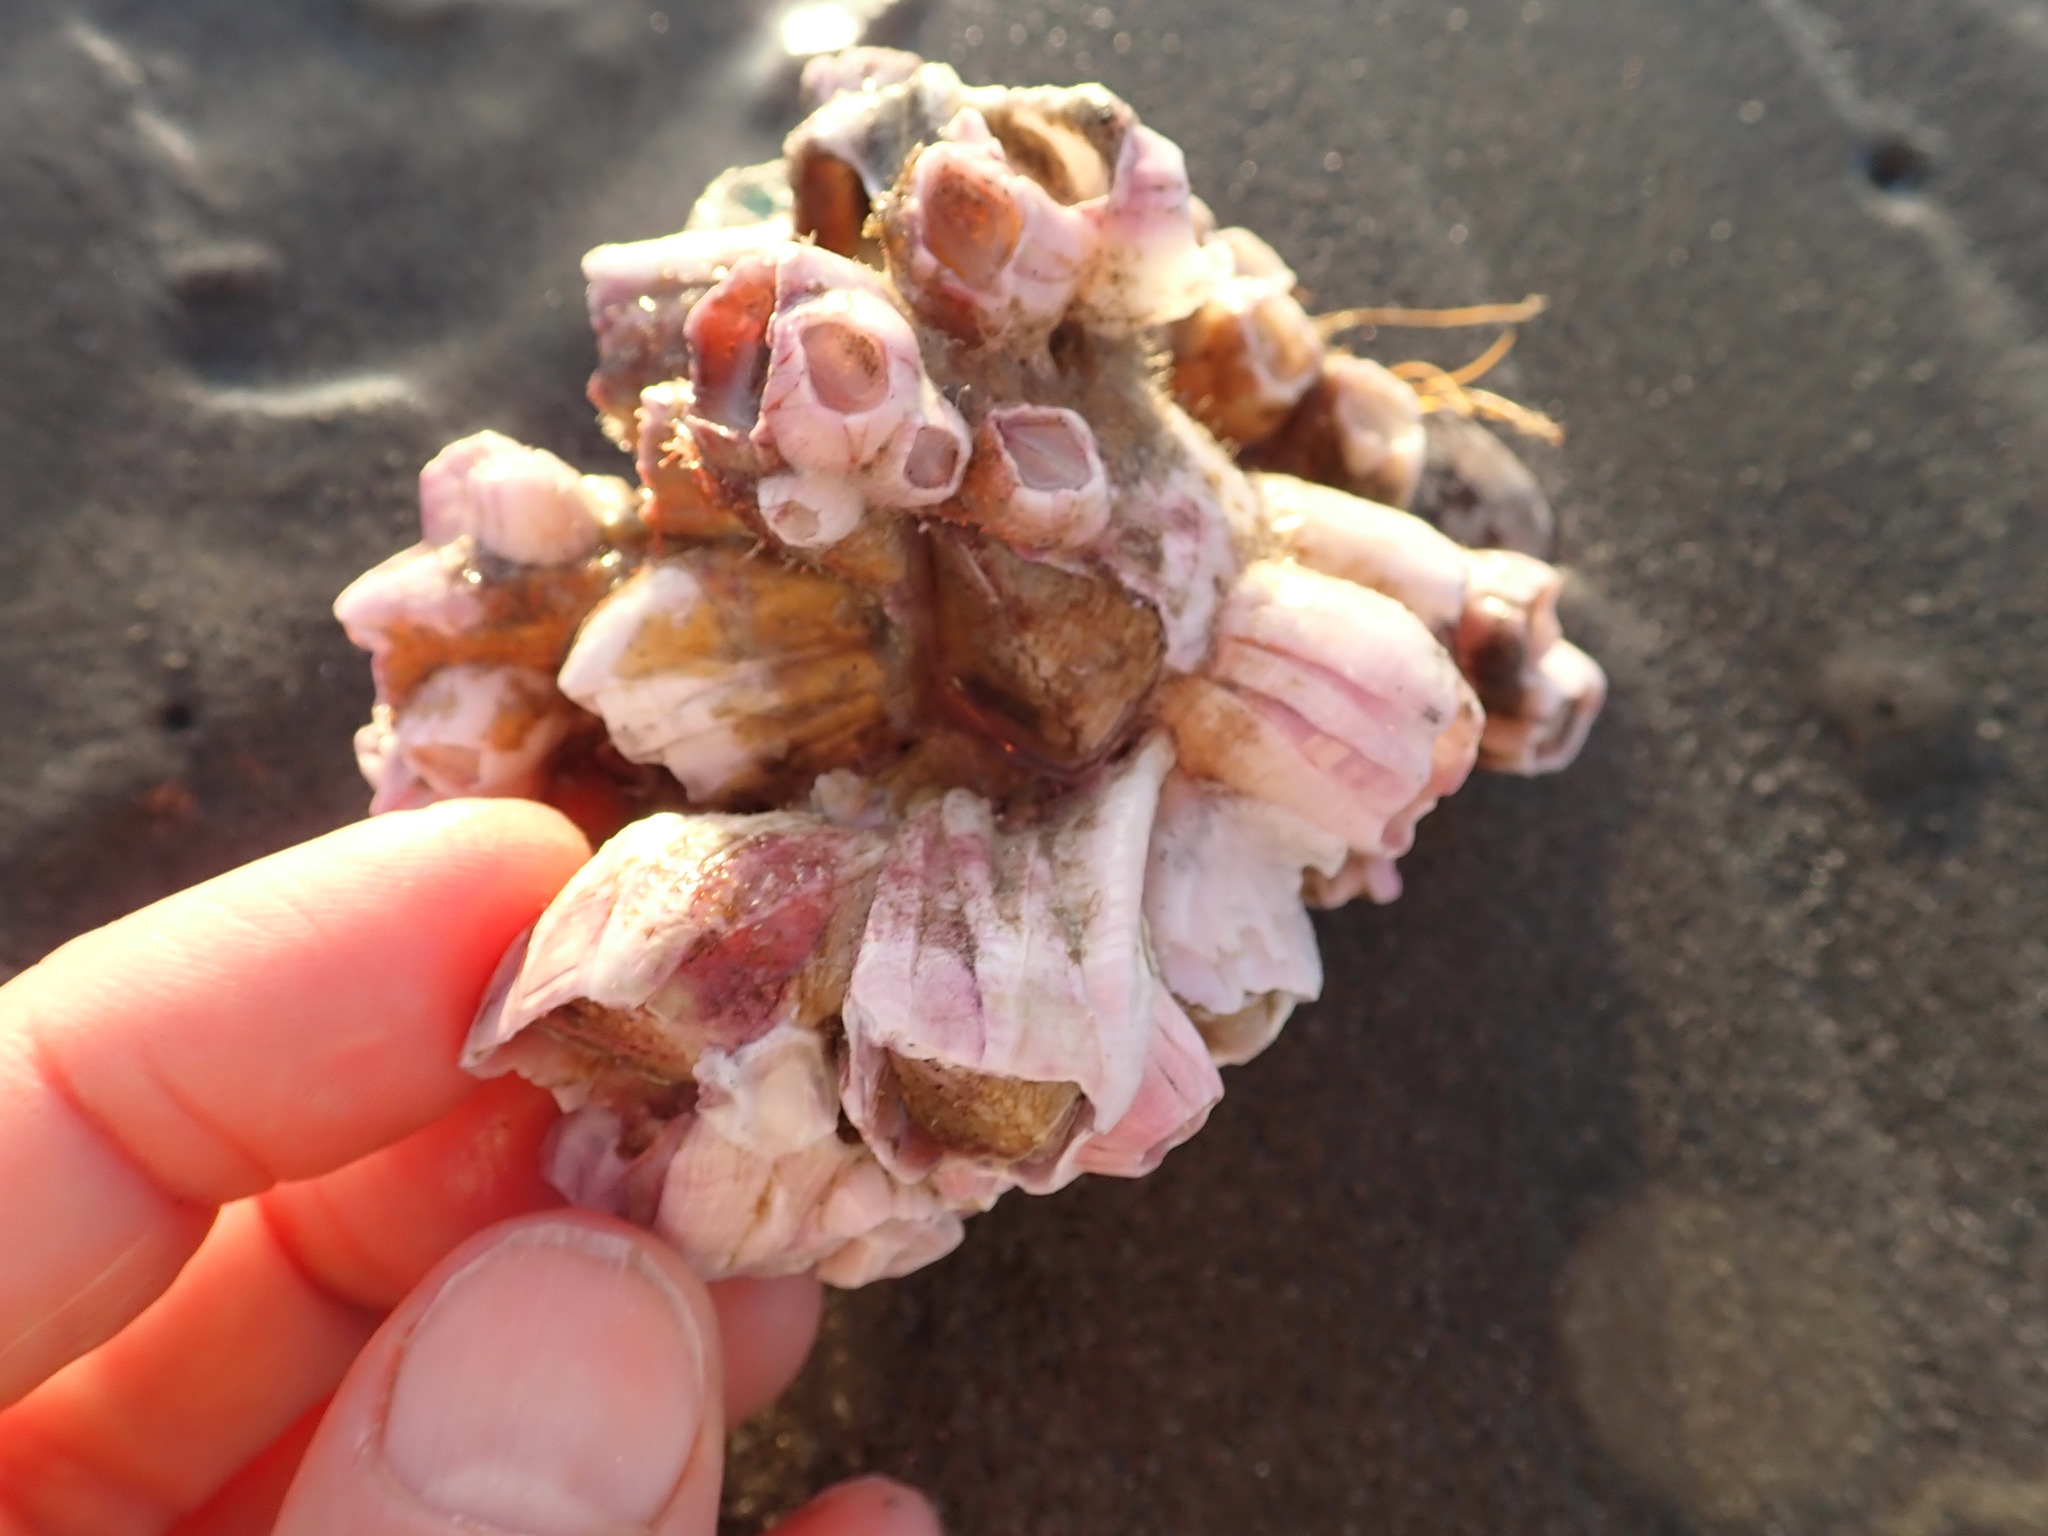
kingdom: Animalia
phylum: Arthropoda
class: Maxillopoda
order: Sessilia
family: Balanidae
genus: Notomegabalanus
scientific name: Notomegabalanus decorus
